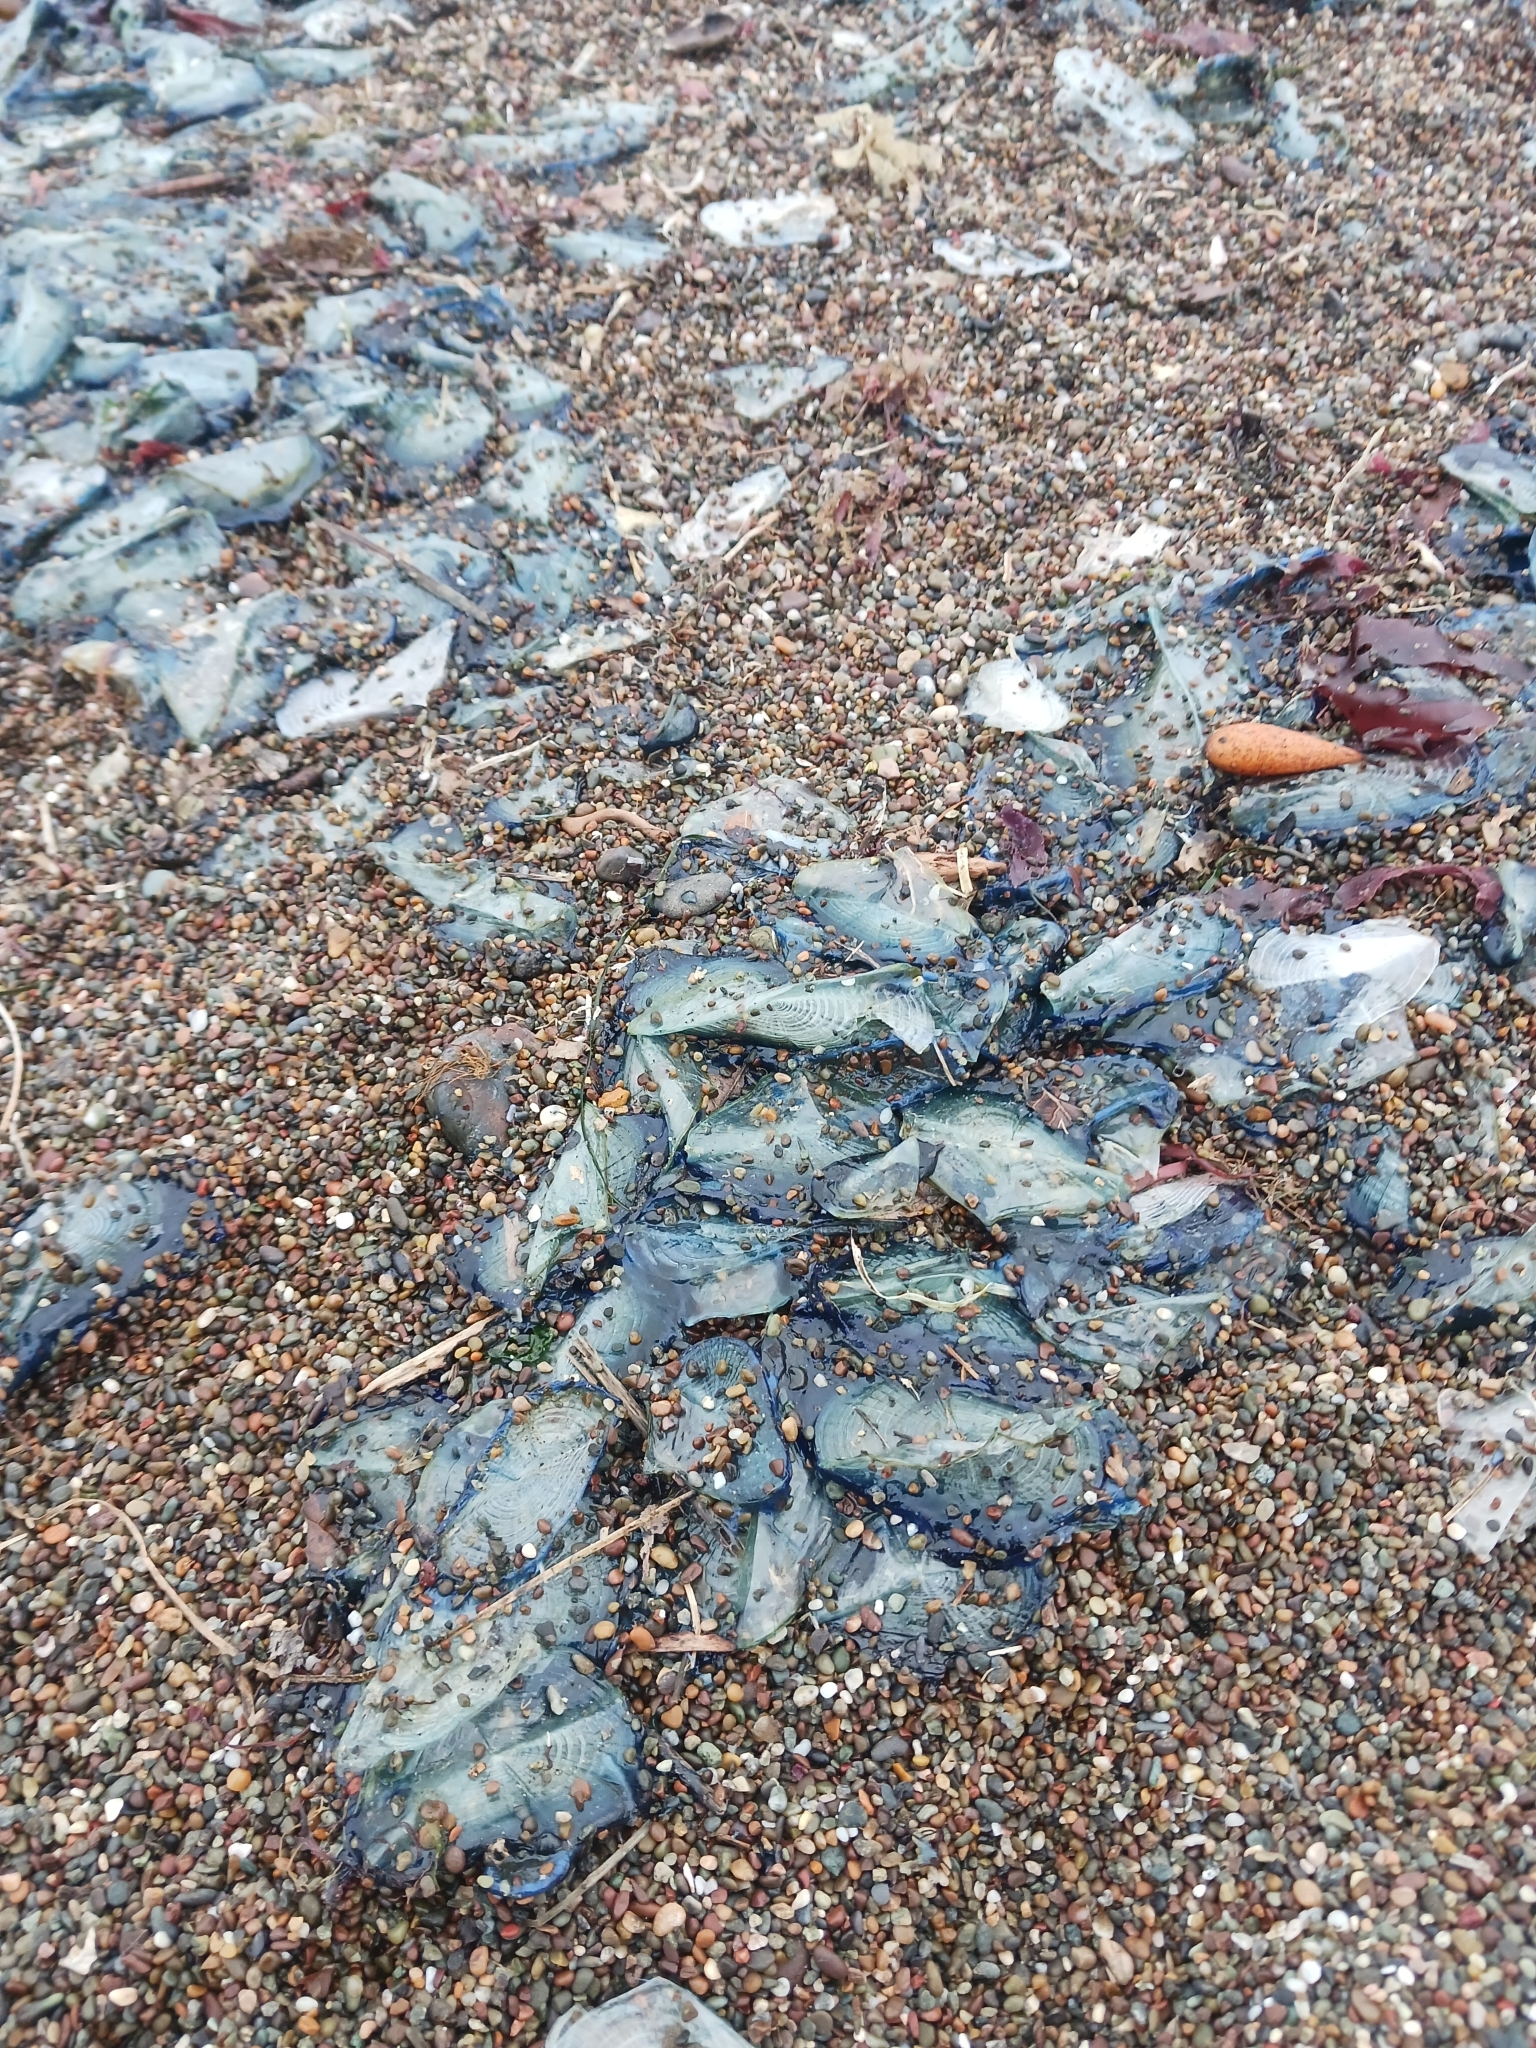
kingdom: Animalia
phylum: Cnidaria
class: Hydrozoa
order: Anthoathecata
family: Porpitidae
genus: Velella
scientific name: Velella velella
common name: By-the-wind-sailor
